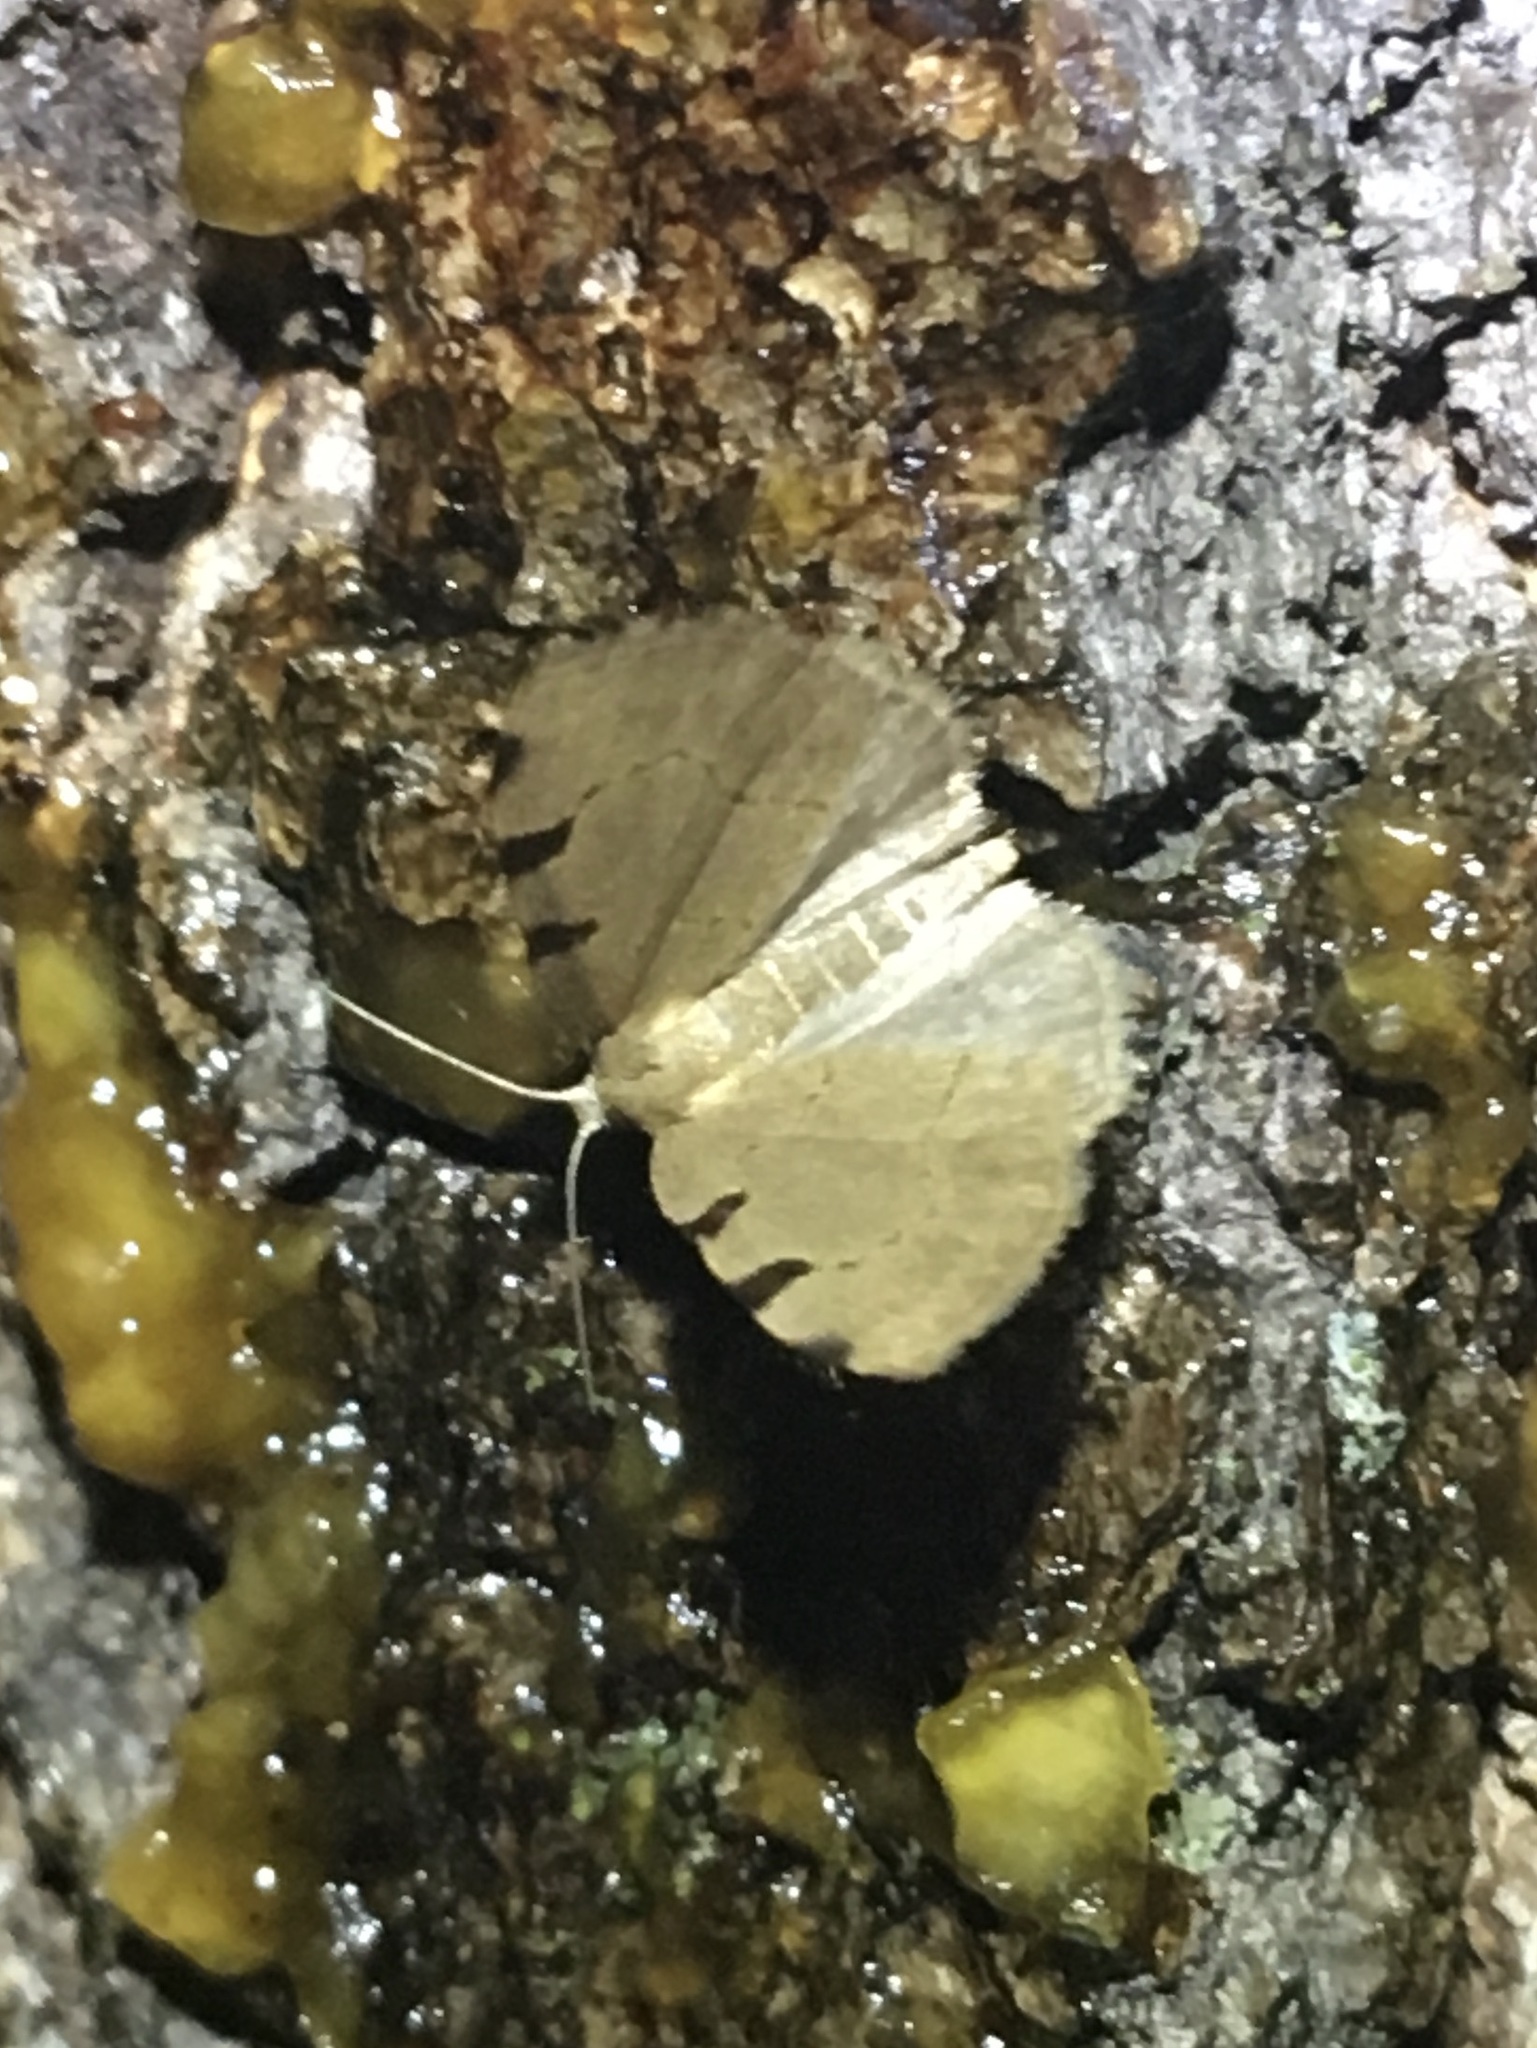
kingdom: Animalia
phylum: Arthropoda
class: Insecta
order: Lepidoptera
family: Geometridae
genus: Heterophleps
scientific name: Heterophleps triguttaria
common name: Three-spotted fillip
